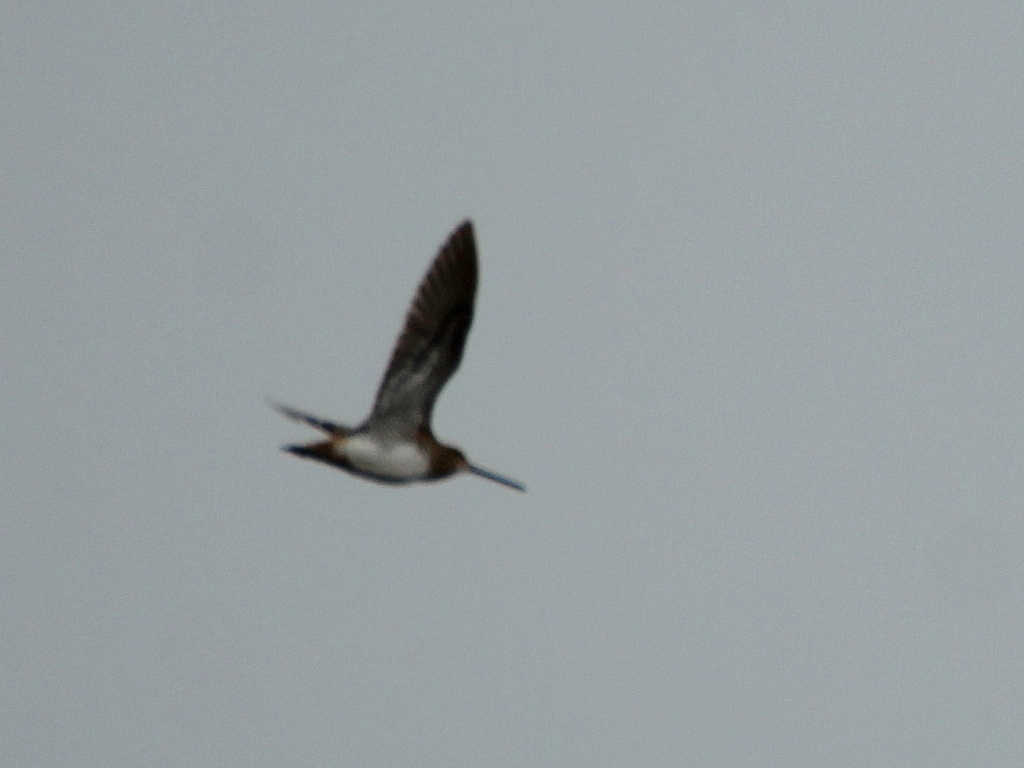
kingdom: Animalia
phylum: Chordata
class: Aves
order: Charadriiformes
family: Scolopacidae
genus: Gallinago
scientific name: Gallinago gallinago
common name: Common snipe
